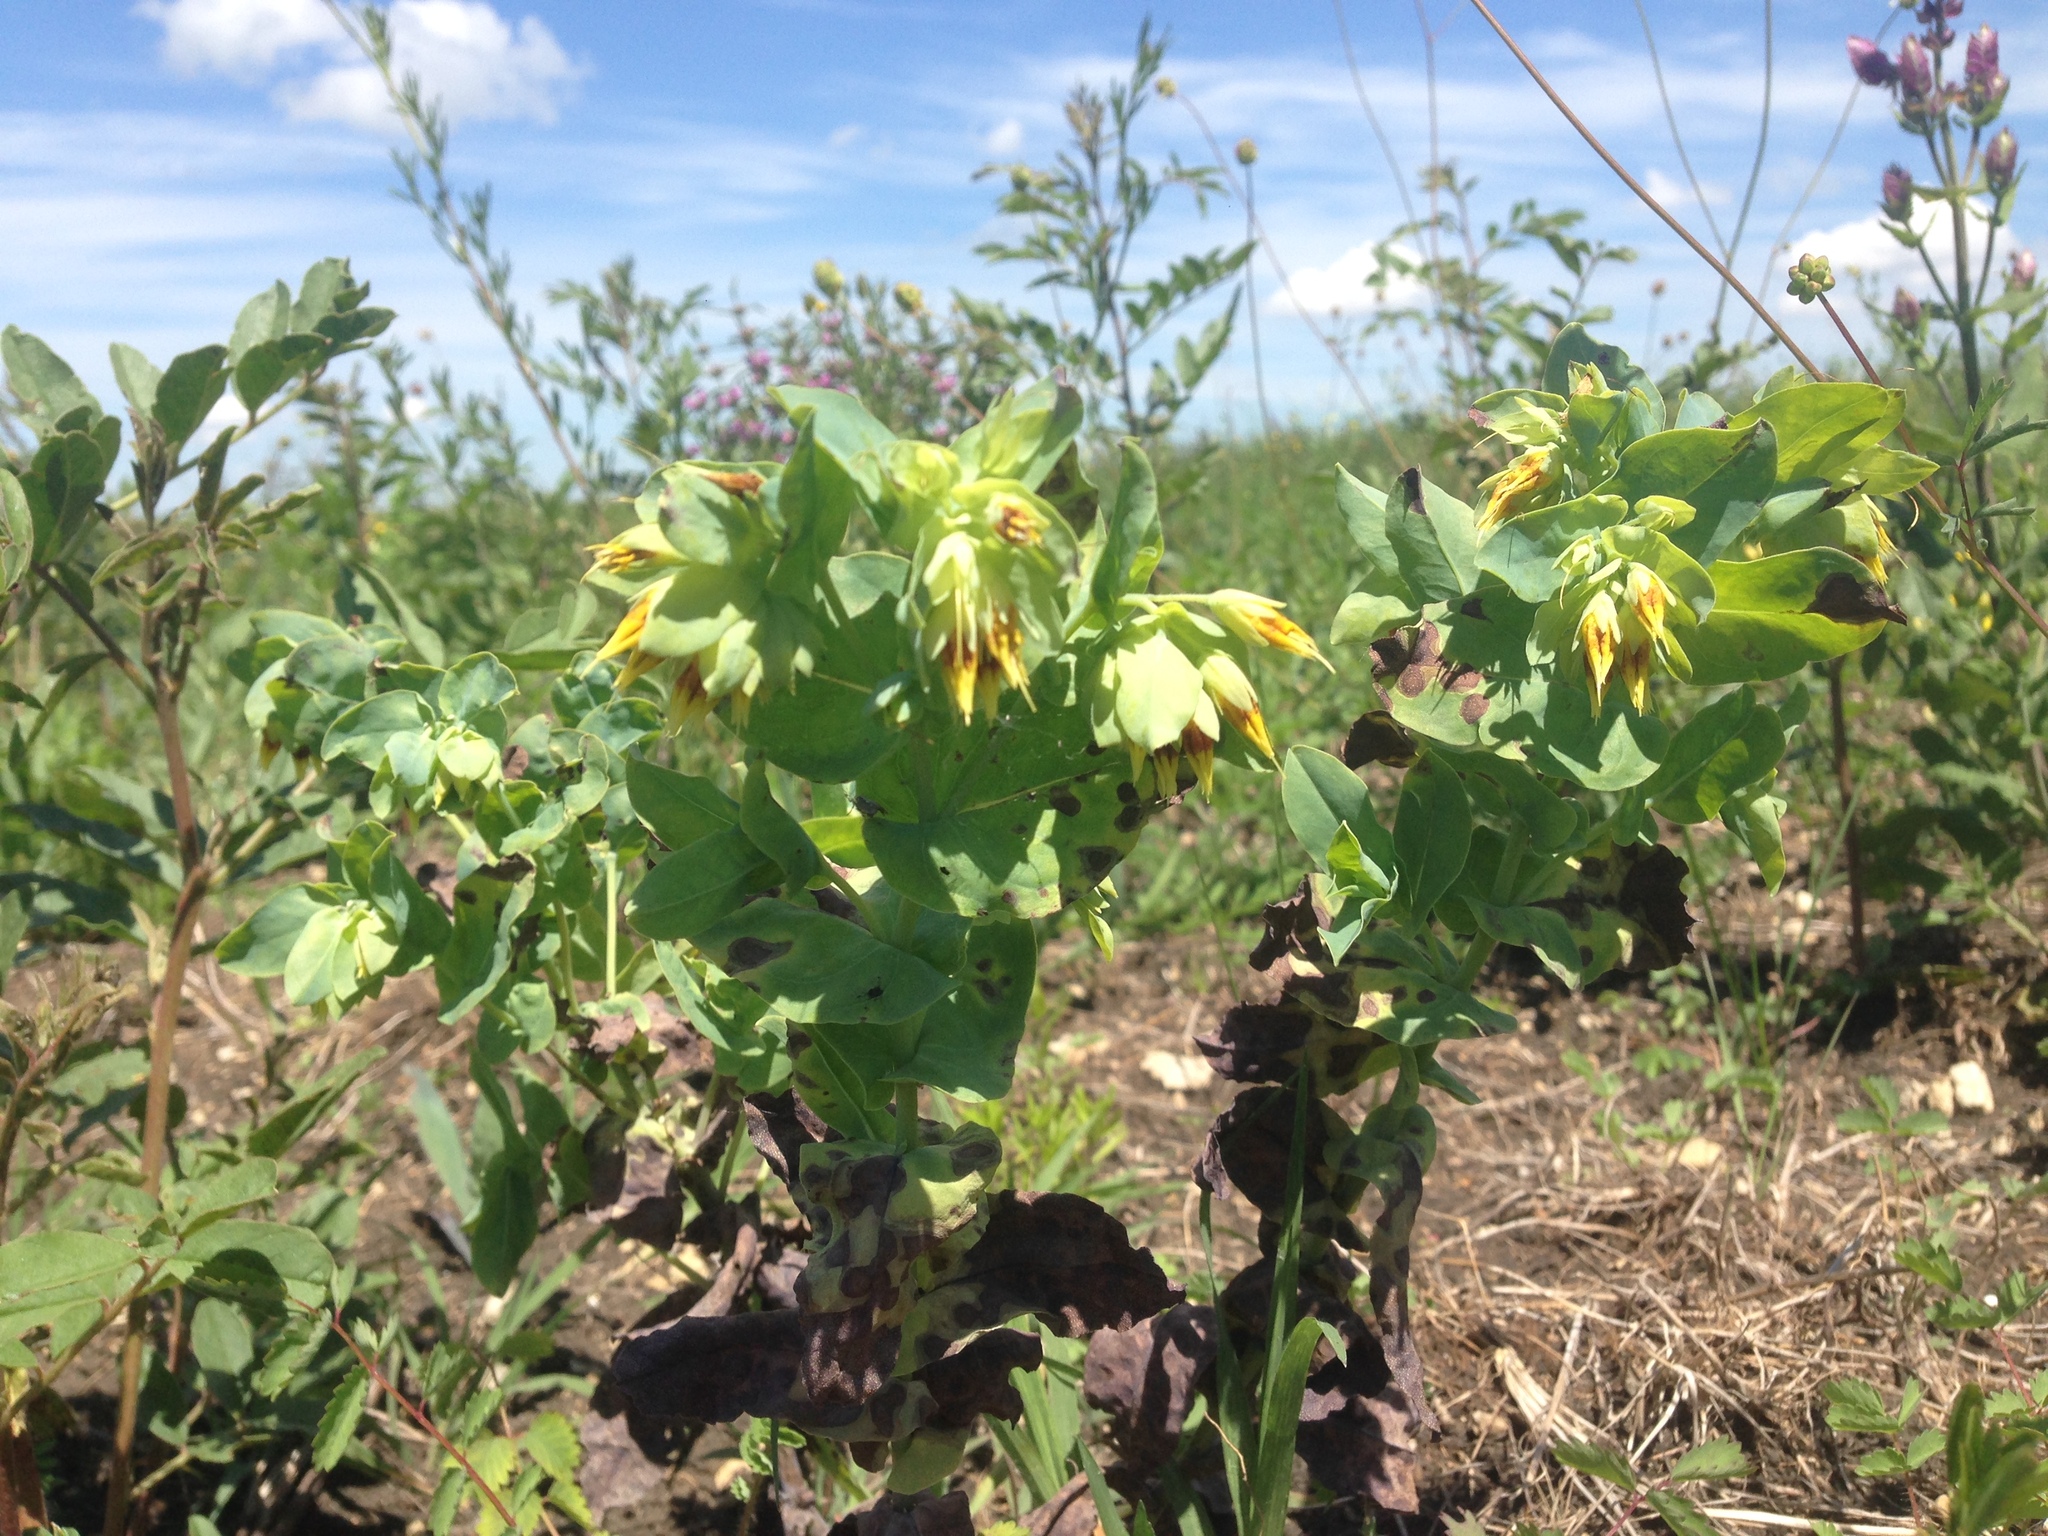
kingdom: Plantae
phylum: Tracheophyta
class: Magnoliopsida
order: Boraginales
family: Boraginaceae
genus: Cerinthe
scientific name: Cerinthe minor
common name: Lesser honeywort
